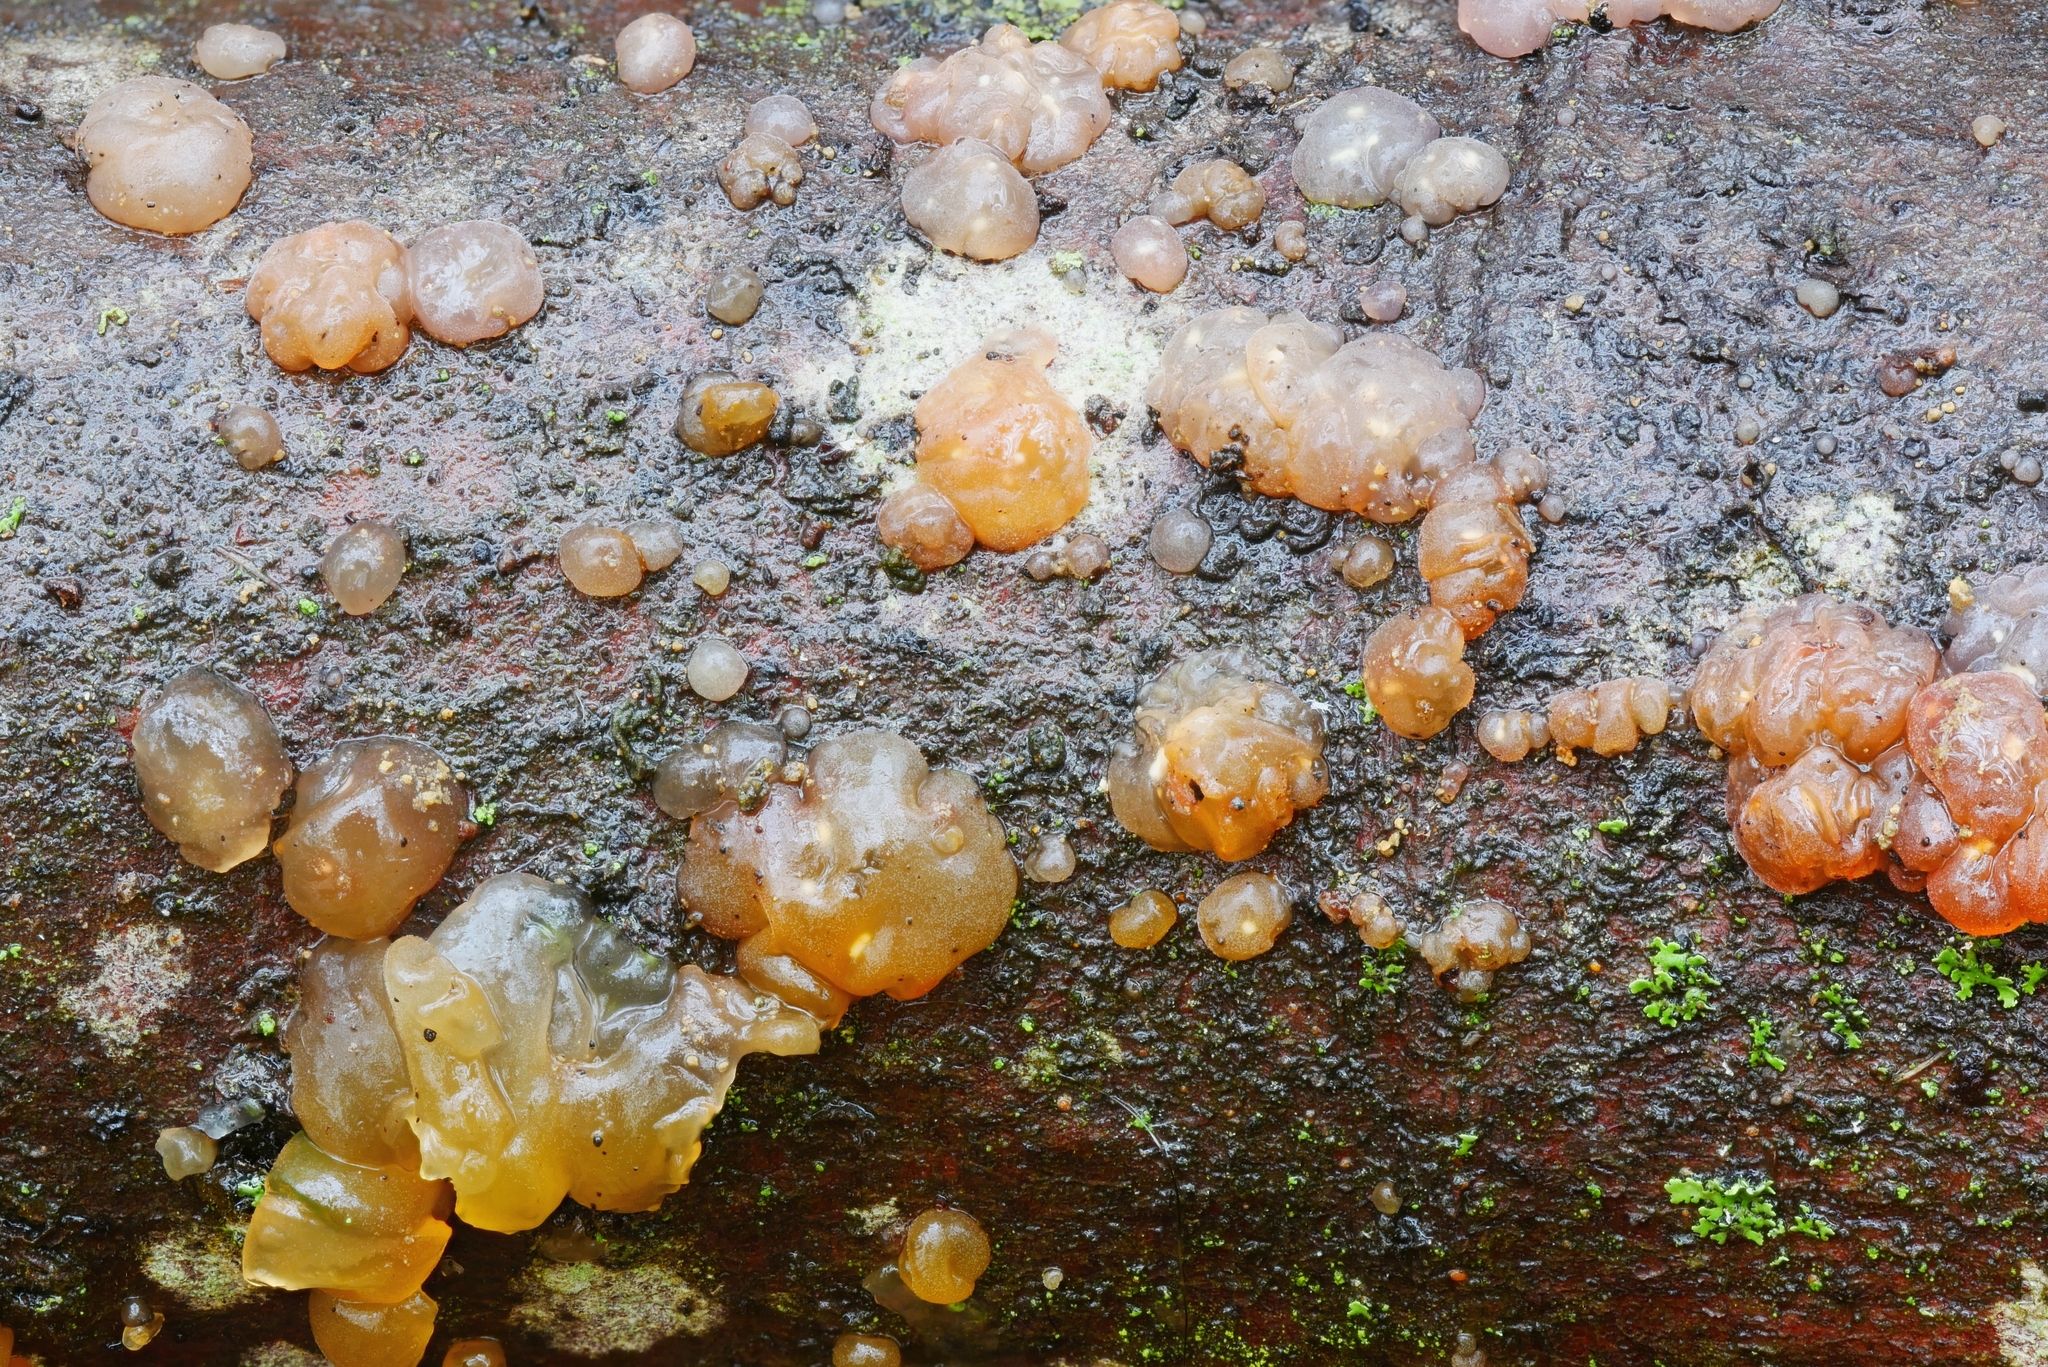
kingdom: Fungi
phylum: Basidiomycota
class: Agaricomycetes
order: Auriculariales
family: Hyaloriaceae
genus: Myxarium
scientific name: Myxarium nucleatum
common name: Crystal brain fungus
